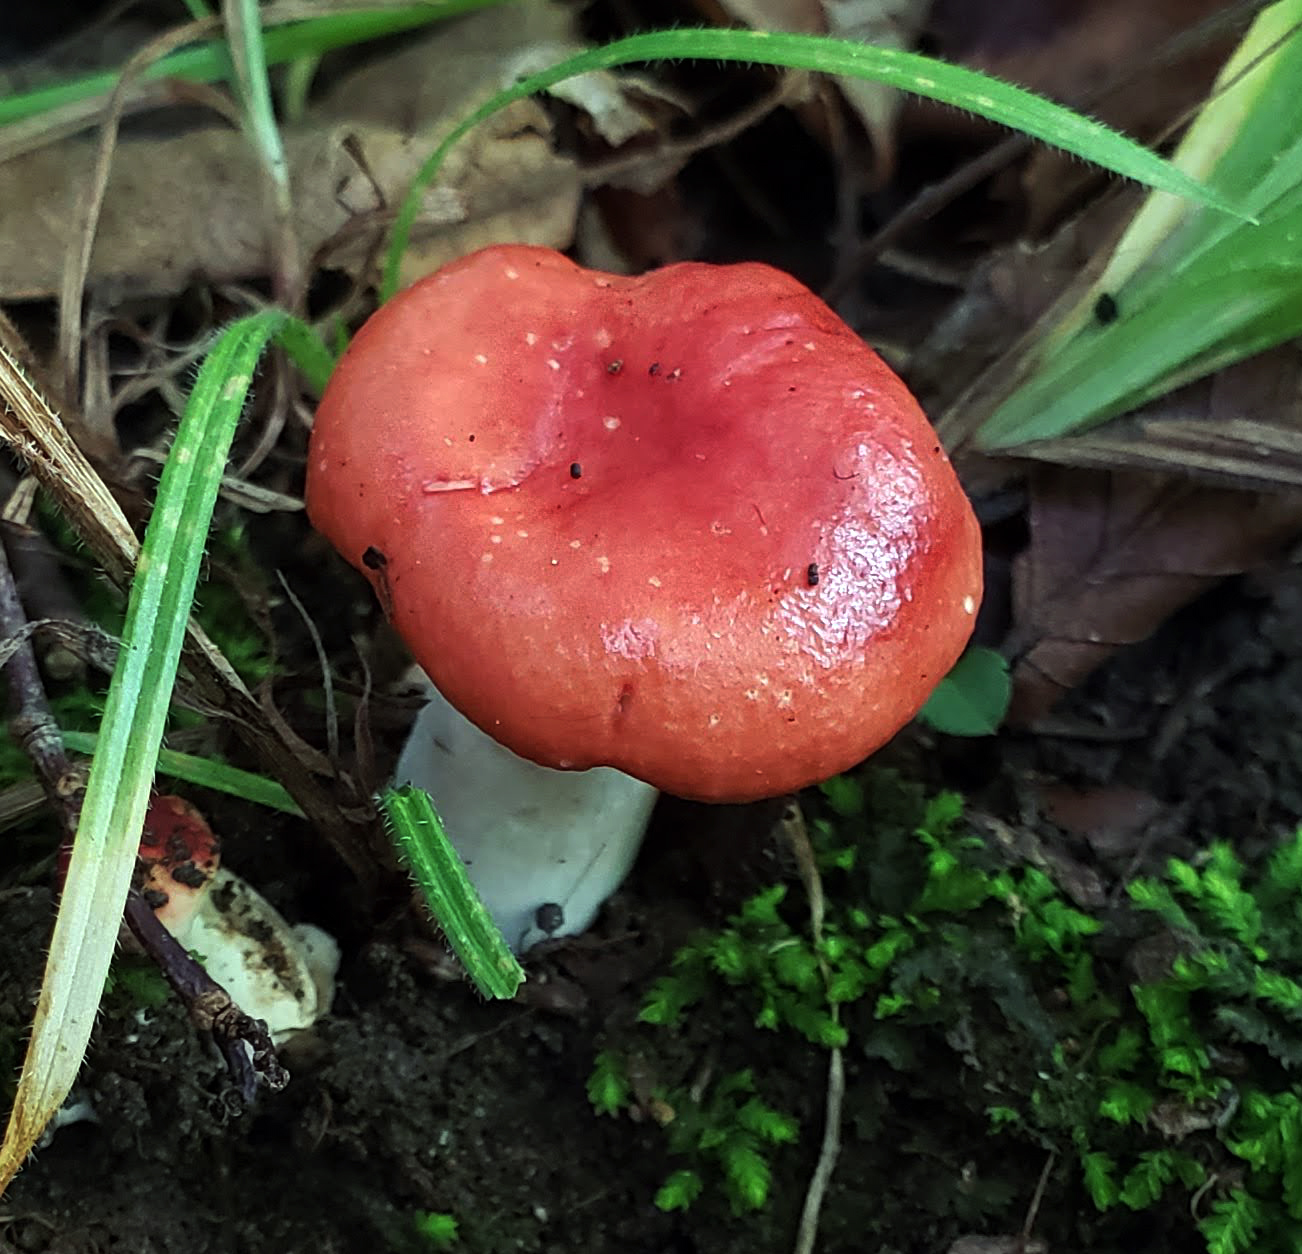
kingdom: Fungi
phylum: Basidiomycota
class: Agaricomycetes
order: Russulales
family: Russulaceae
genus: Russula
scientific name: Russula
